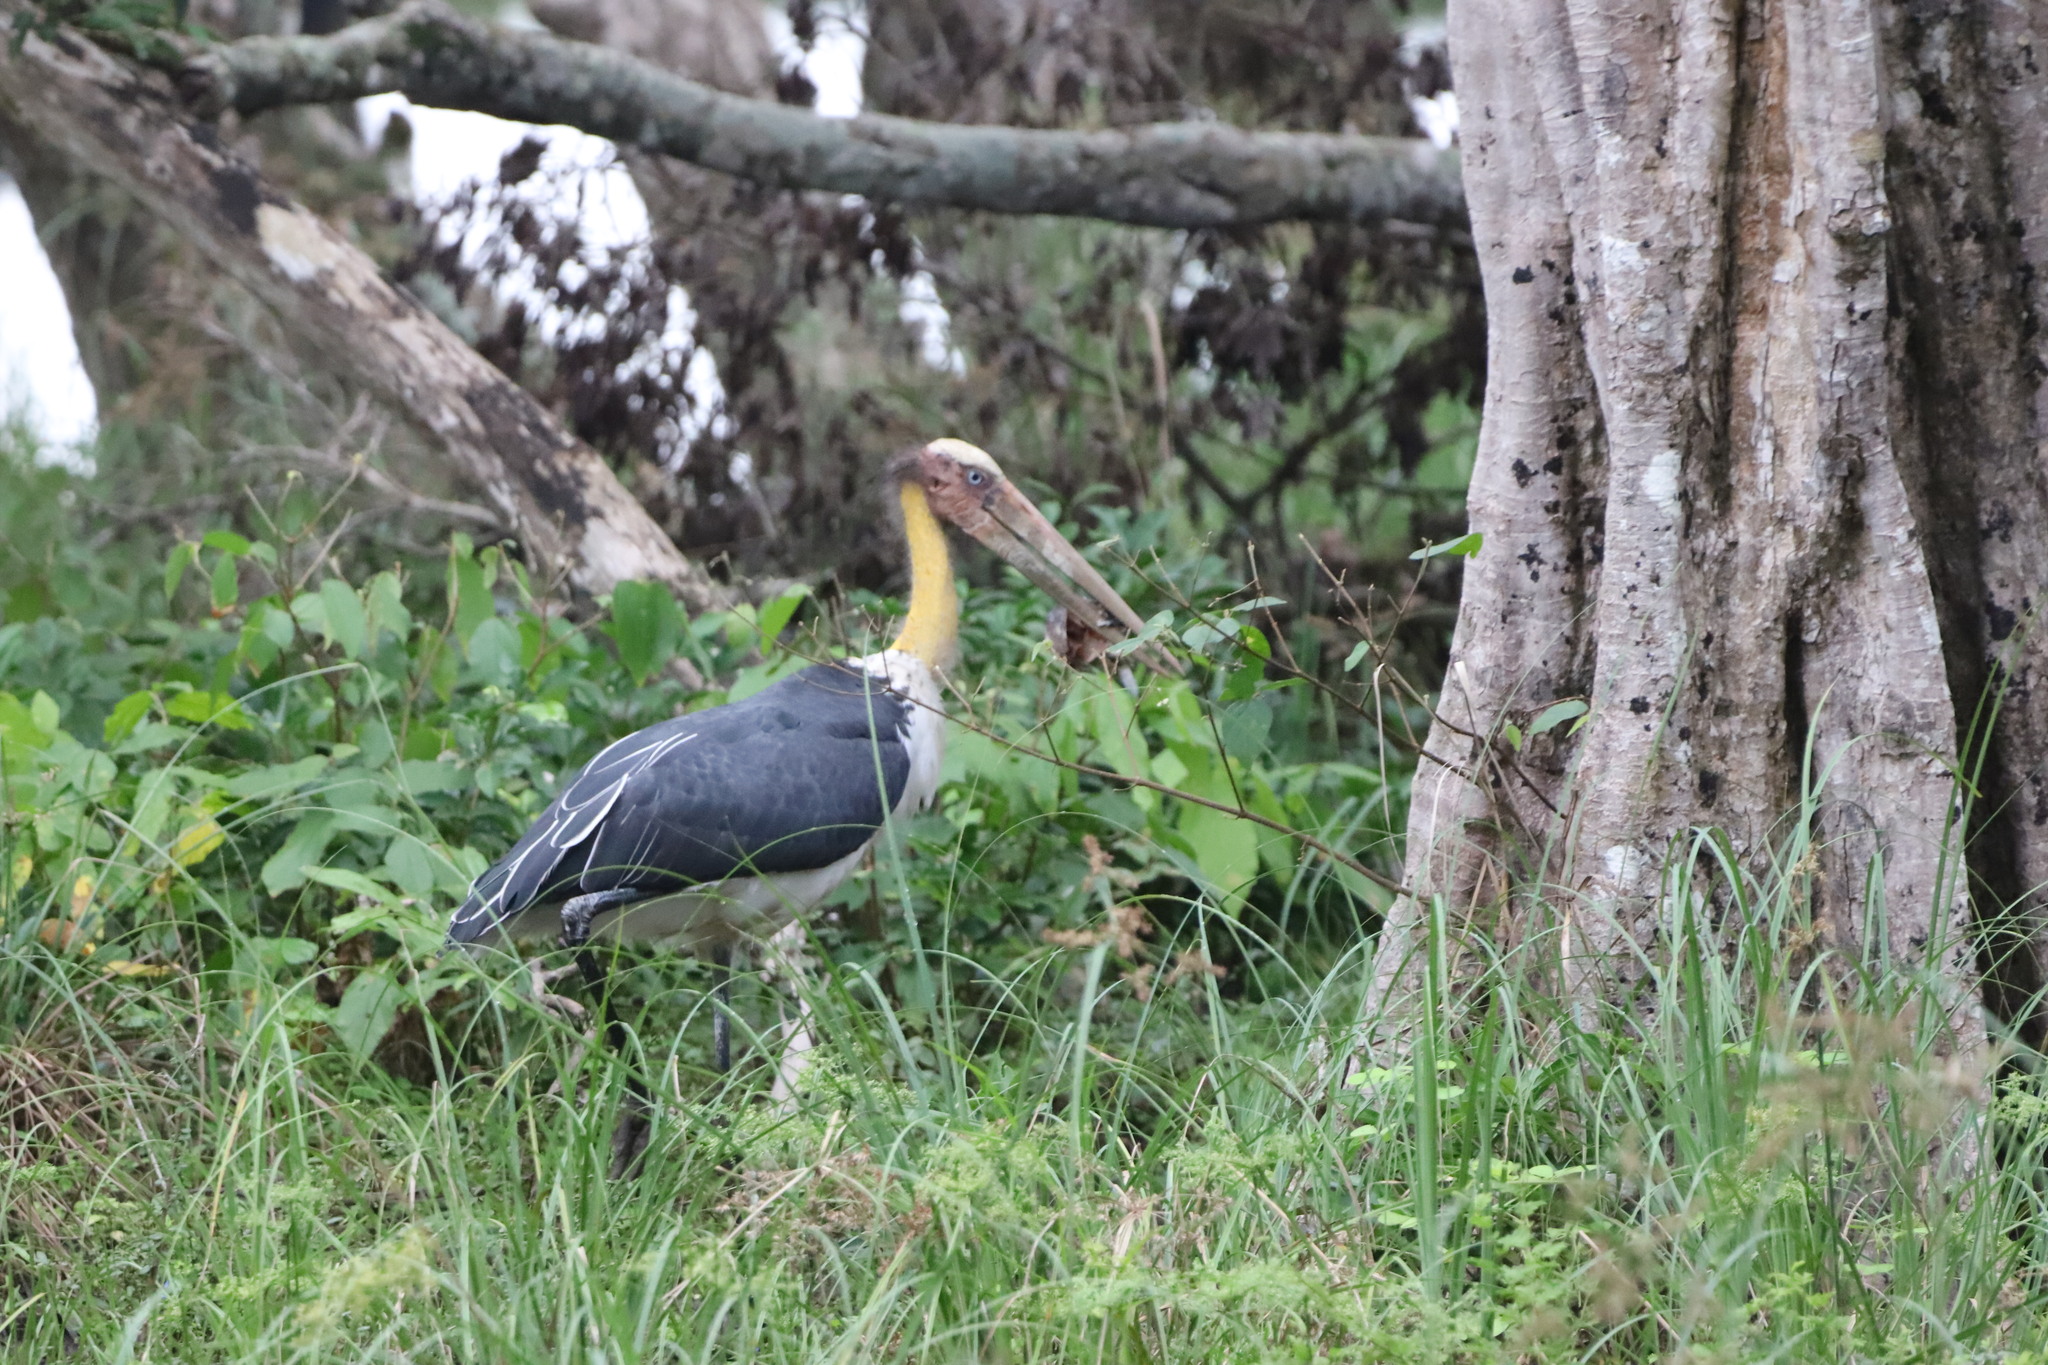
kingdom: Animalia
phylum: Chordata
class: Aves
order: Ciconiiformes
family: Ciconiidae
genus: Leptoptilos
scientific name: Leptoptilos javanicus
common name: Lesser adjutant
